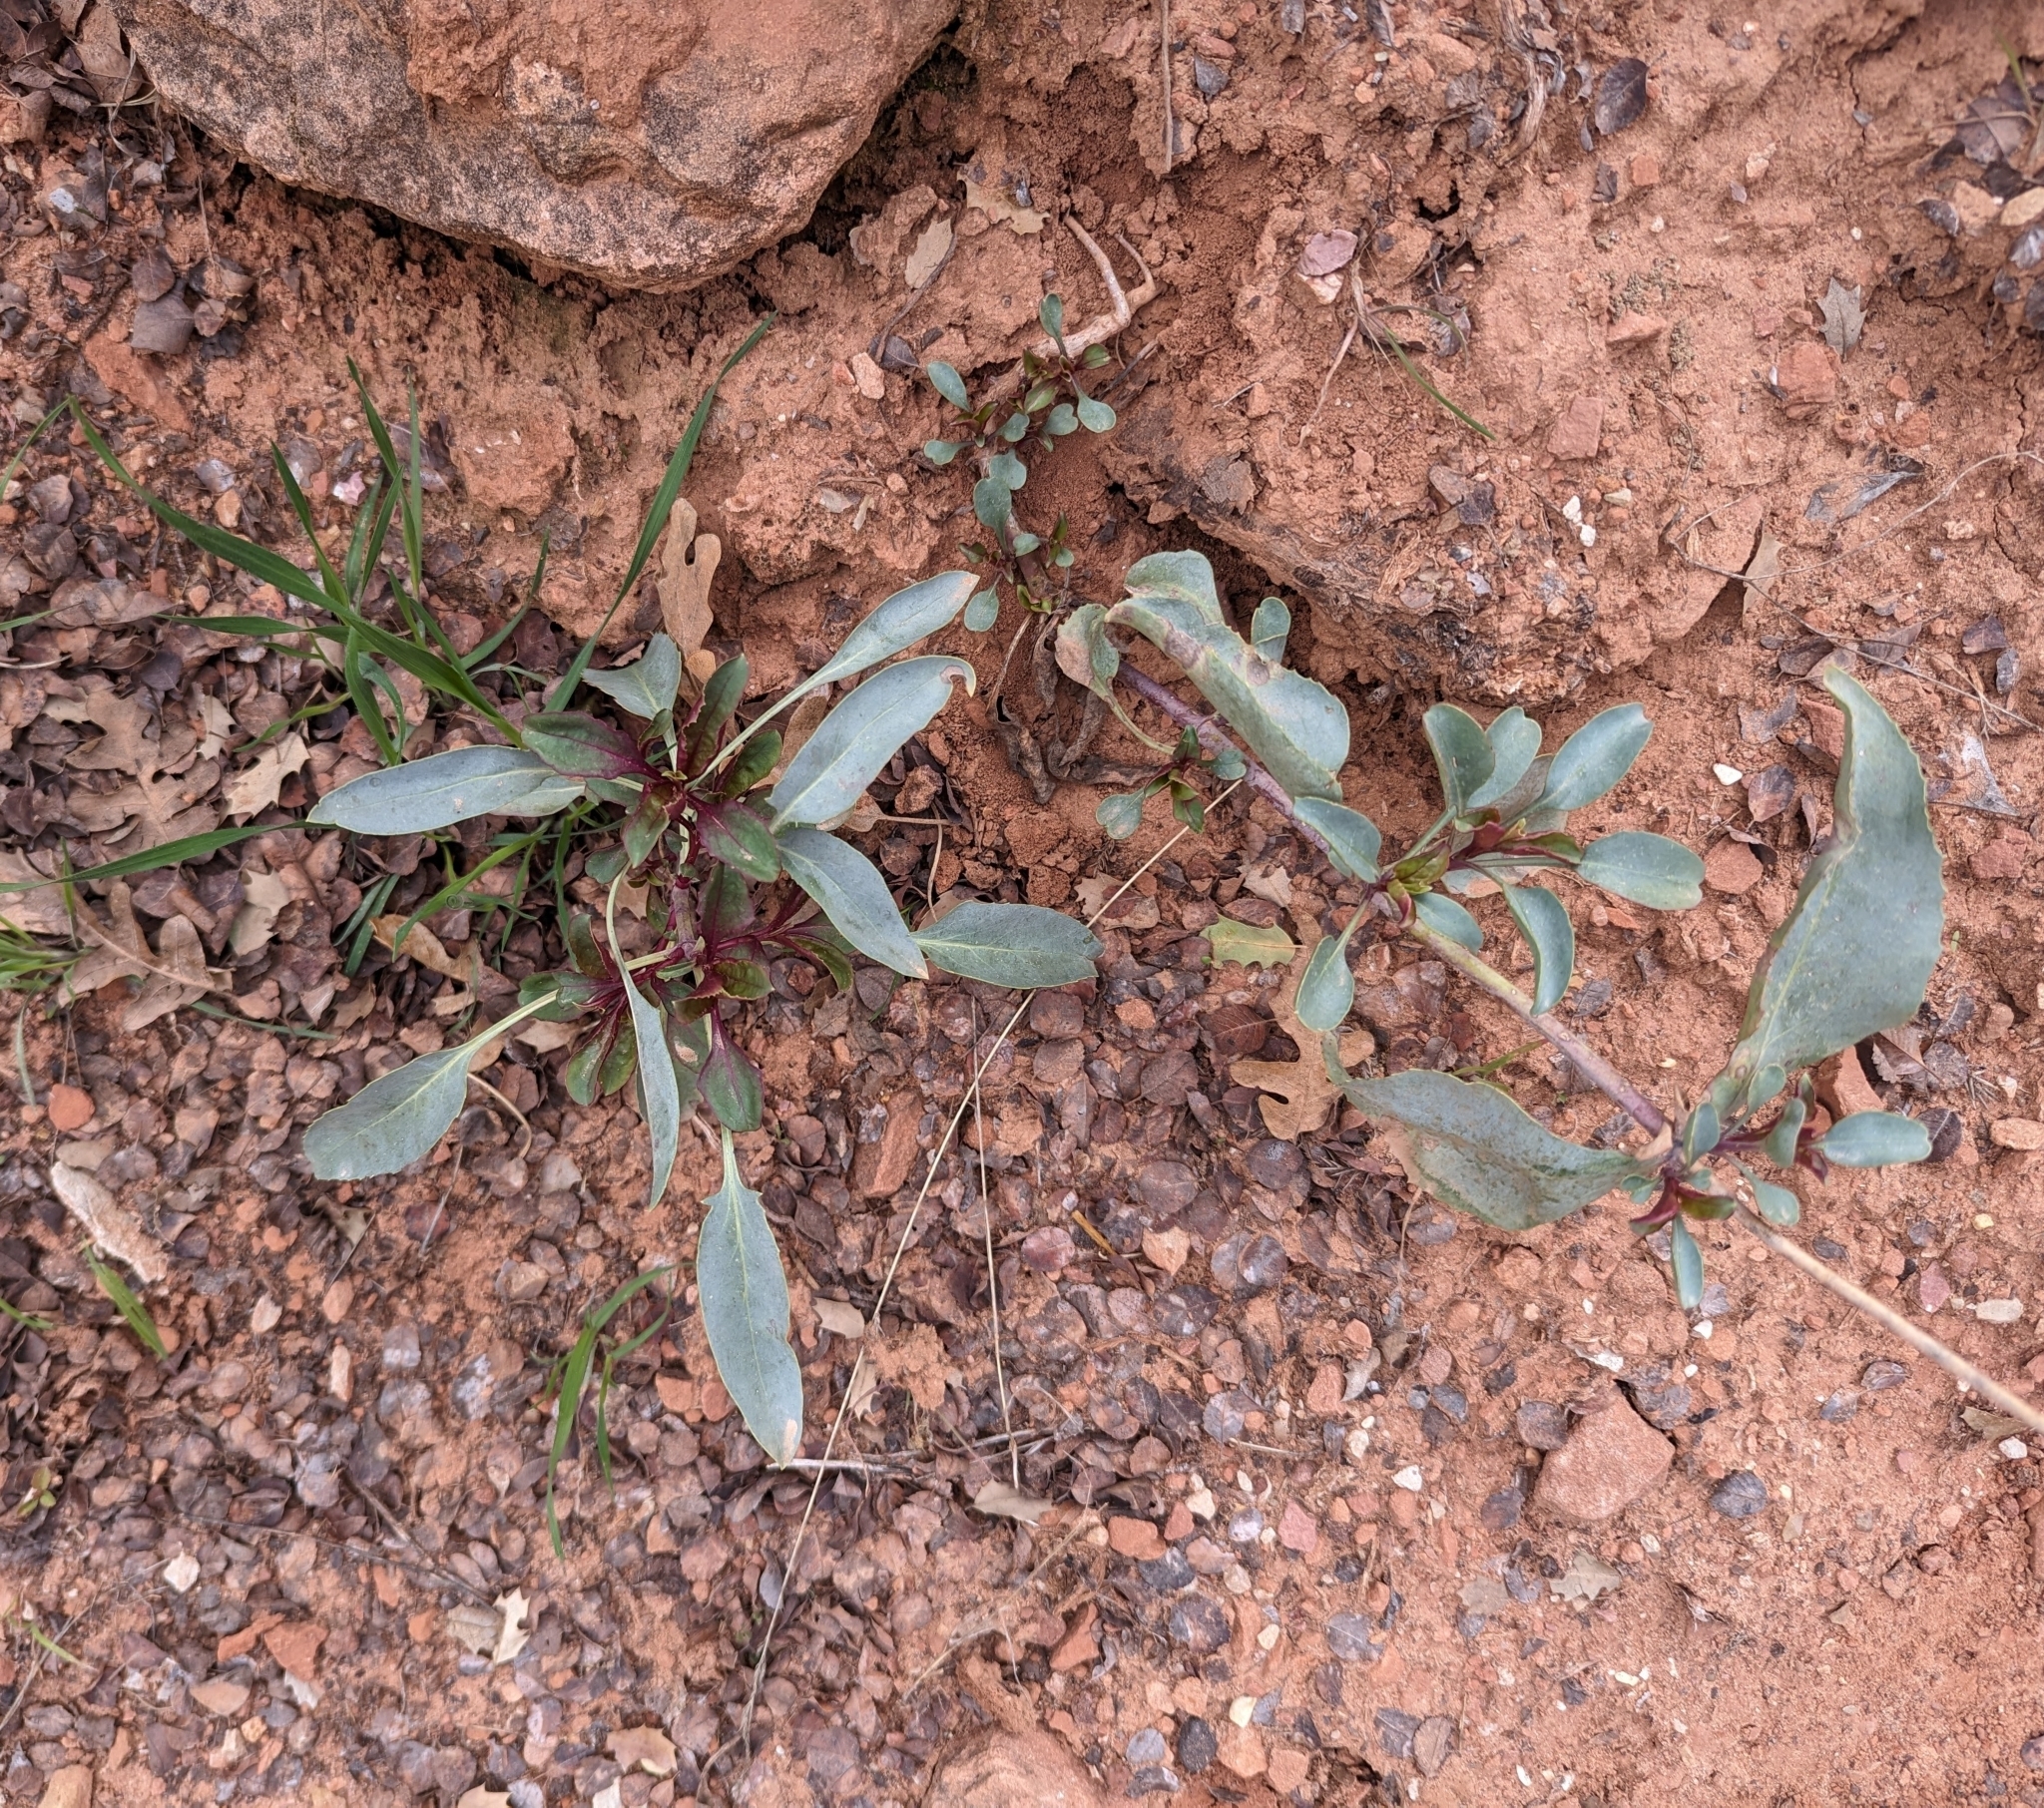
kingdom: Plantae
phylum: Tracheophyta
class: Magnoliopsida
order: Lamiales
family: Plantaginaceae
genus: Penstemon
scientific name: Penstemon palmeri
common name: Palmer penstemon
